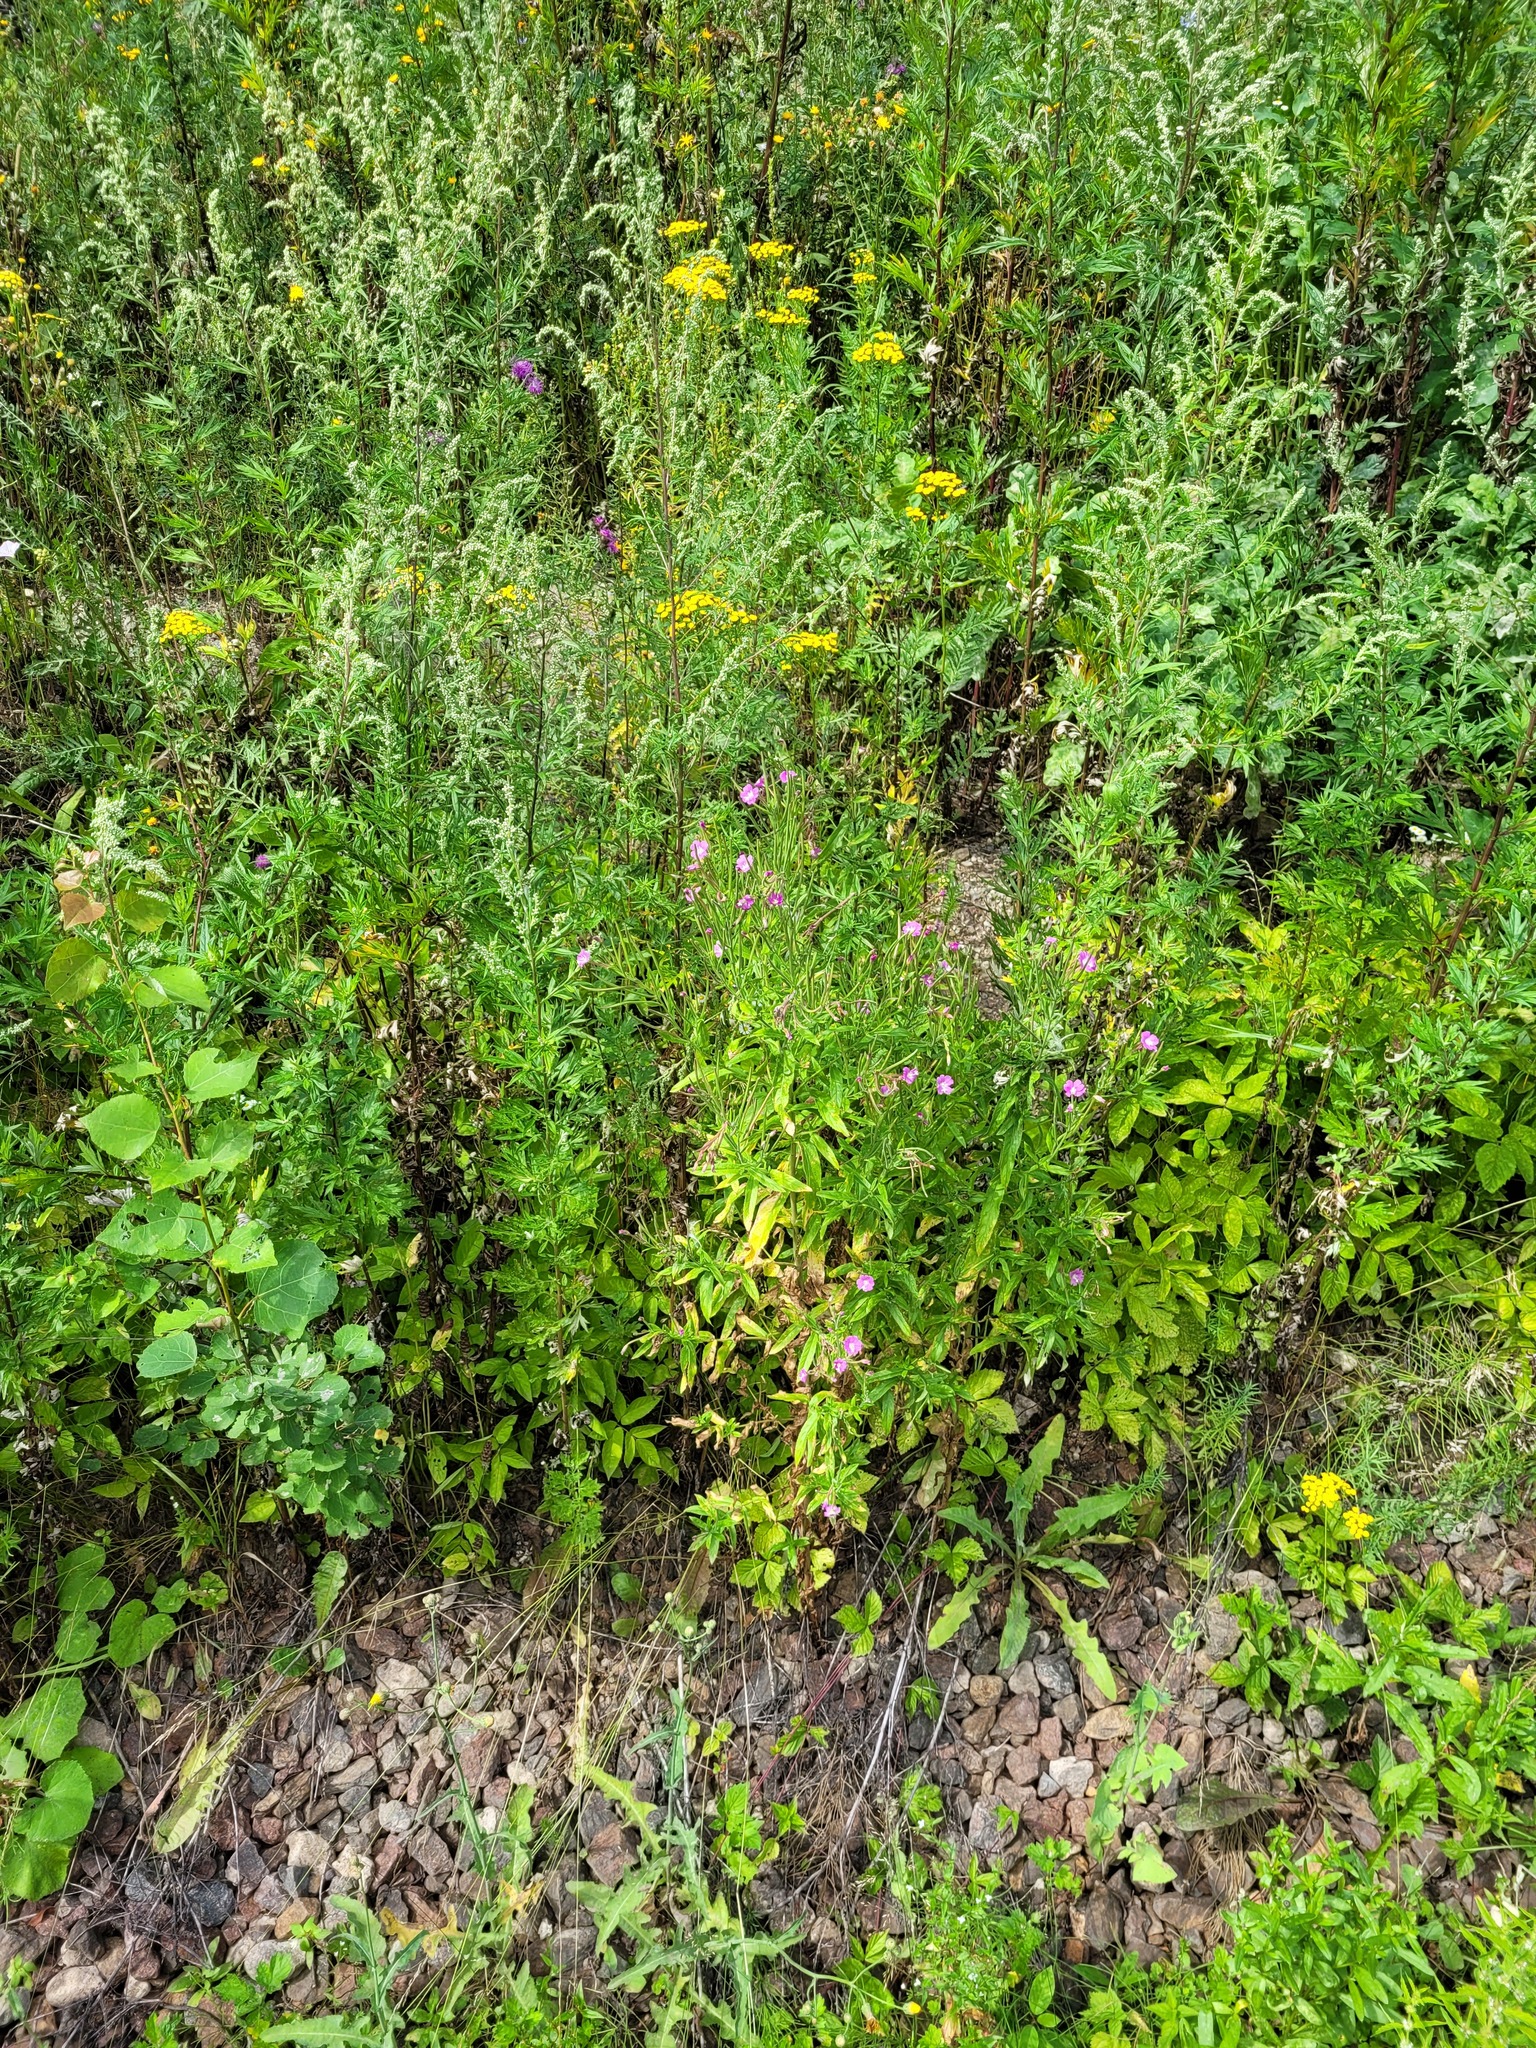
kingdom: Plantae
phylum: Tracheophyta
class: Magnoliopsida
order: Myrtales
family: Onagraceae
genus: Epilobium
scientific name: Epilobium hirsutum
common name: Great willowherb
